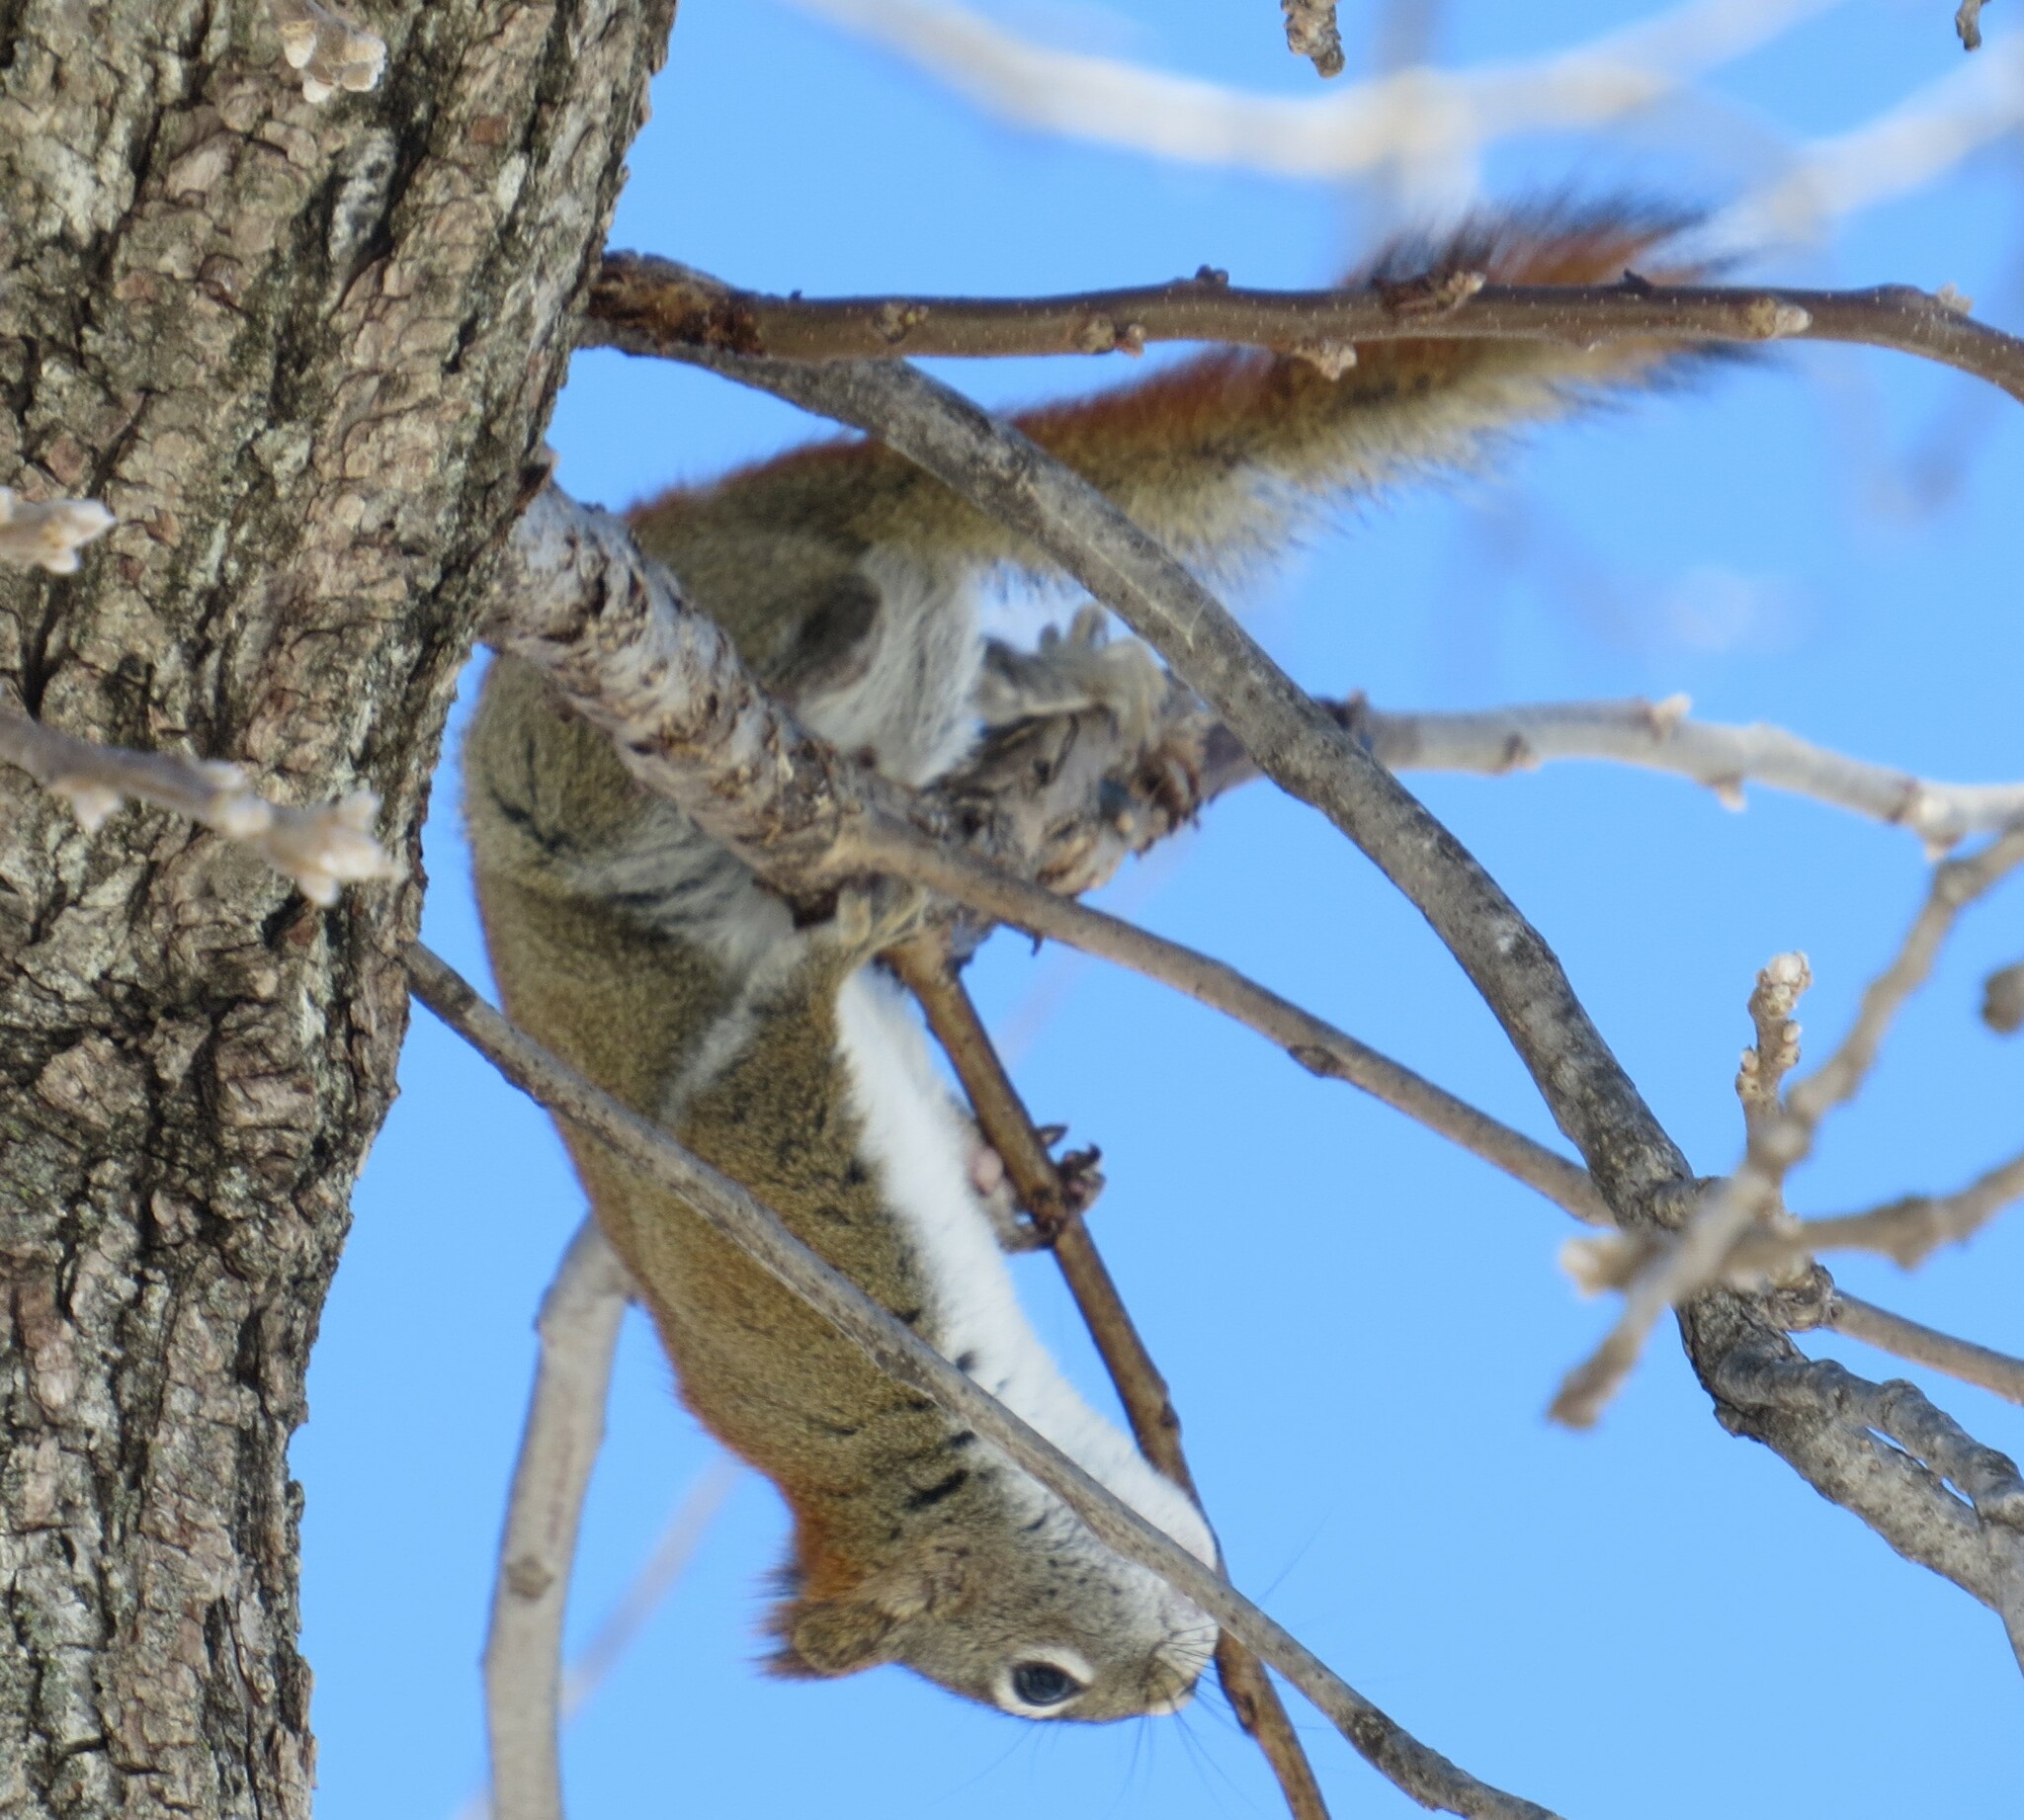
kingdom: Animalia
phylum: Chordata
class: Mammalia
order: Rodentia
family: Sciuridae
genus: Tamiasciurus
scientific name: Tamiasciurus hudsonicus
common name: Red squirrel
